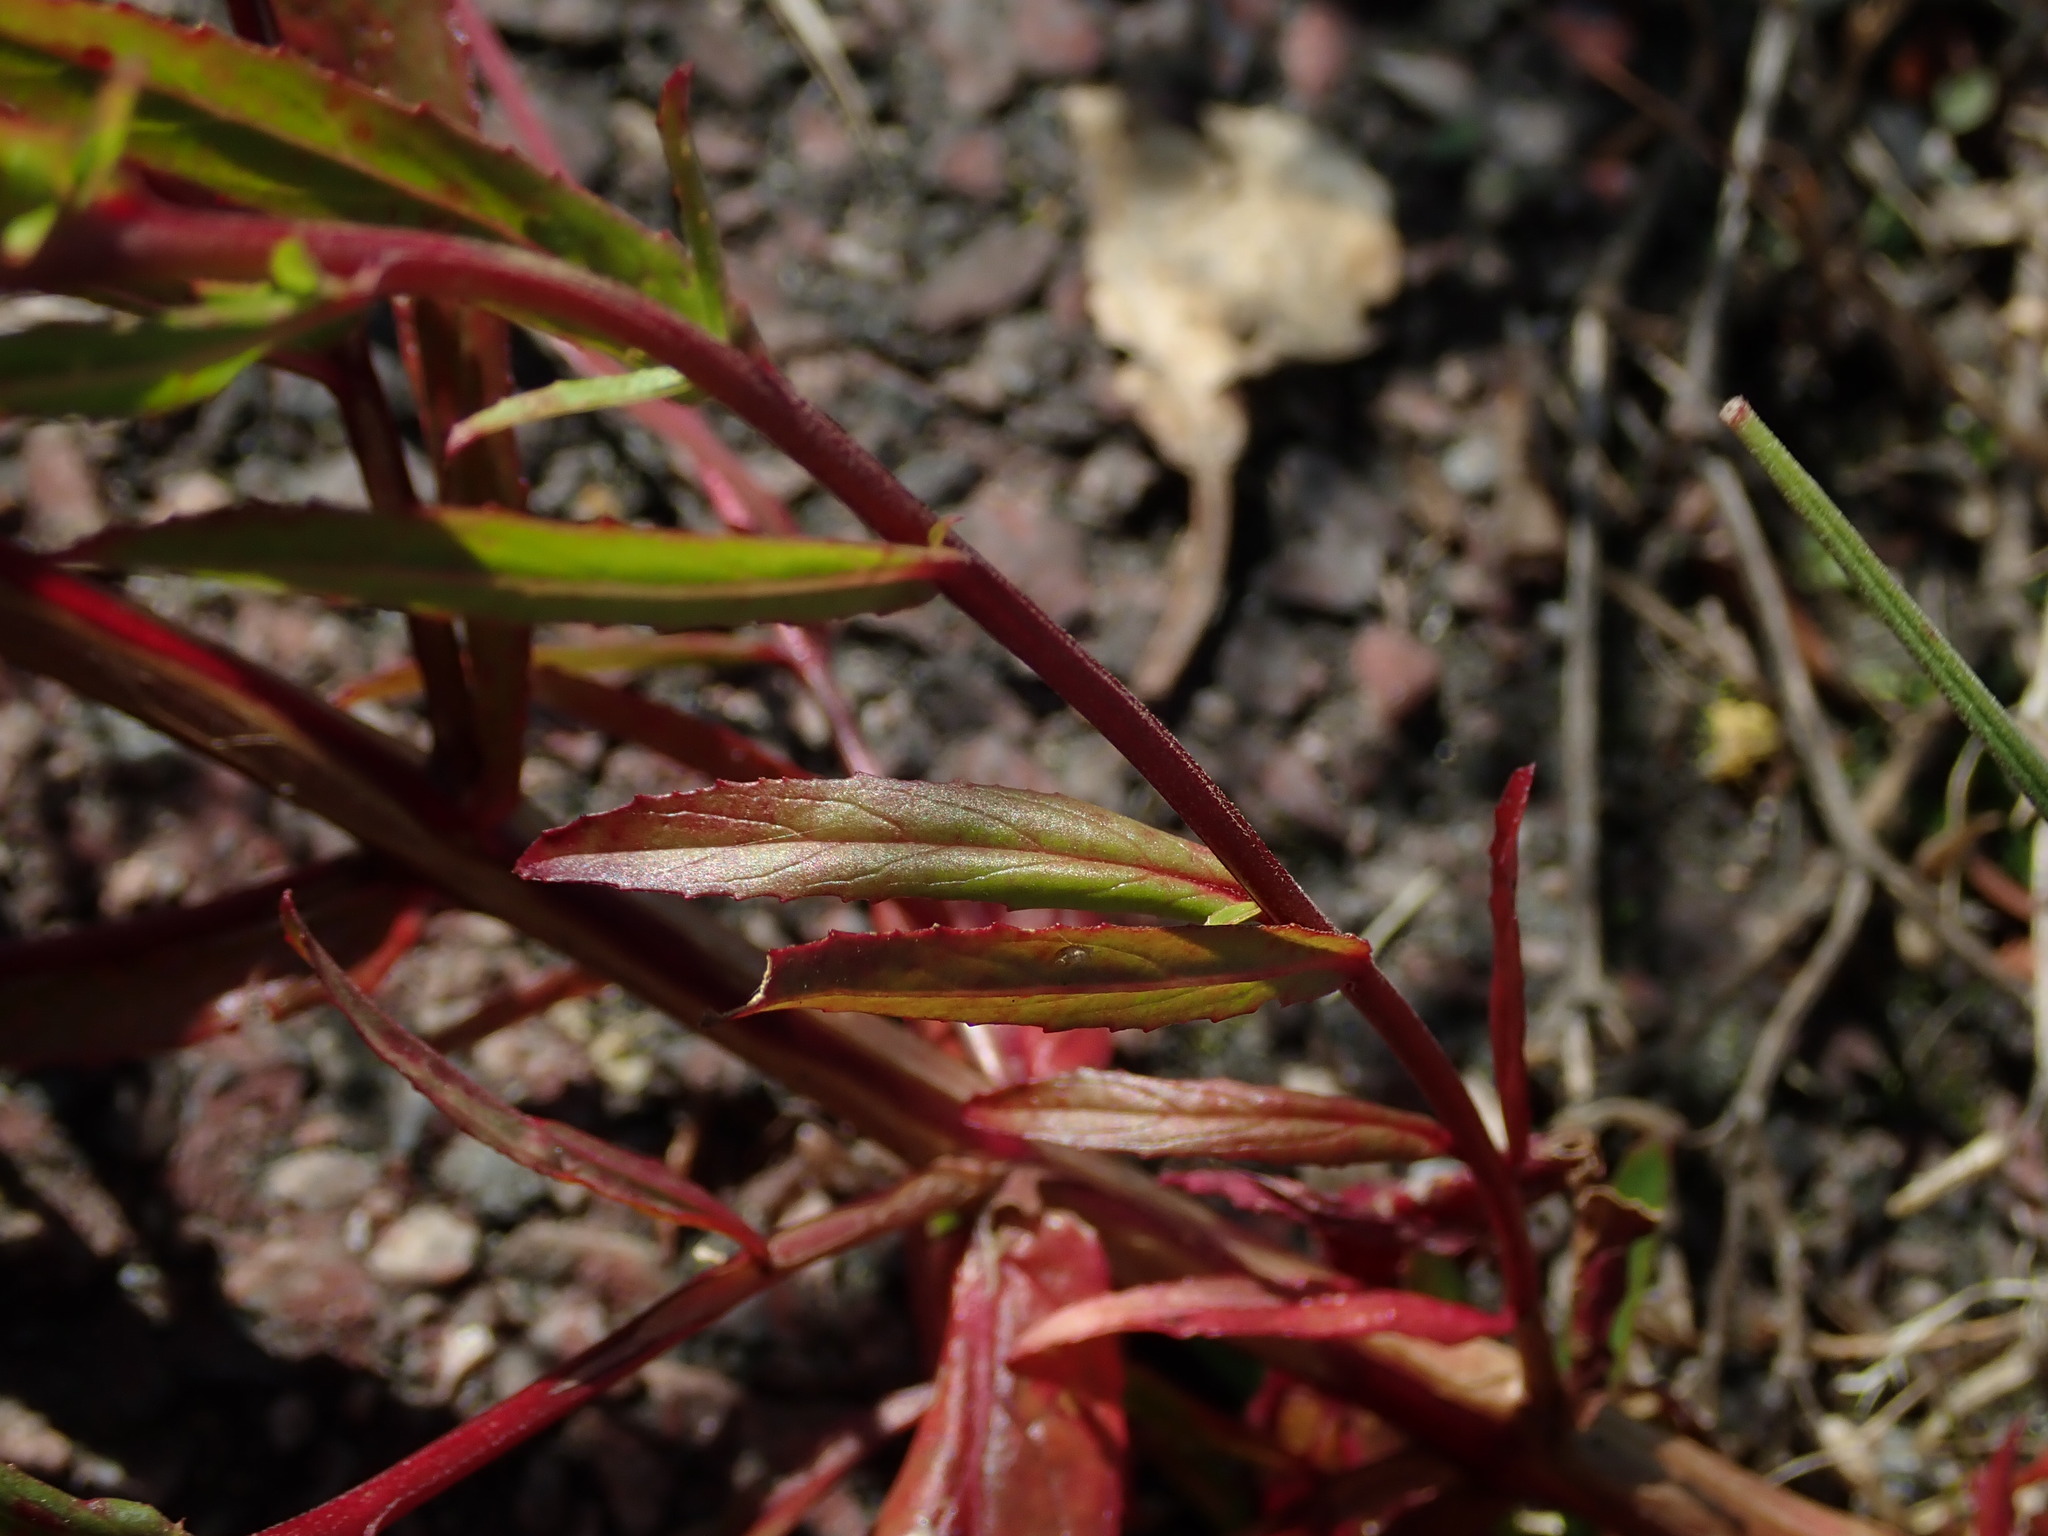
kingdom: Plantae
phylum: Tracheophyta
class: Magnoliopsida
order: Myrtales
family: Onagraceae
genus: Epilobium
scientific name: Epilobium tetragonum
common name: Square-stemmed willowherb
